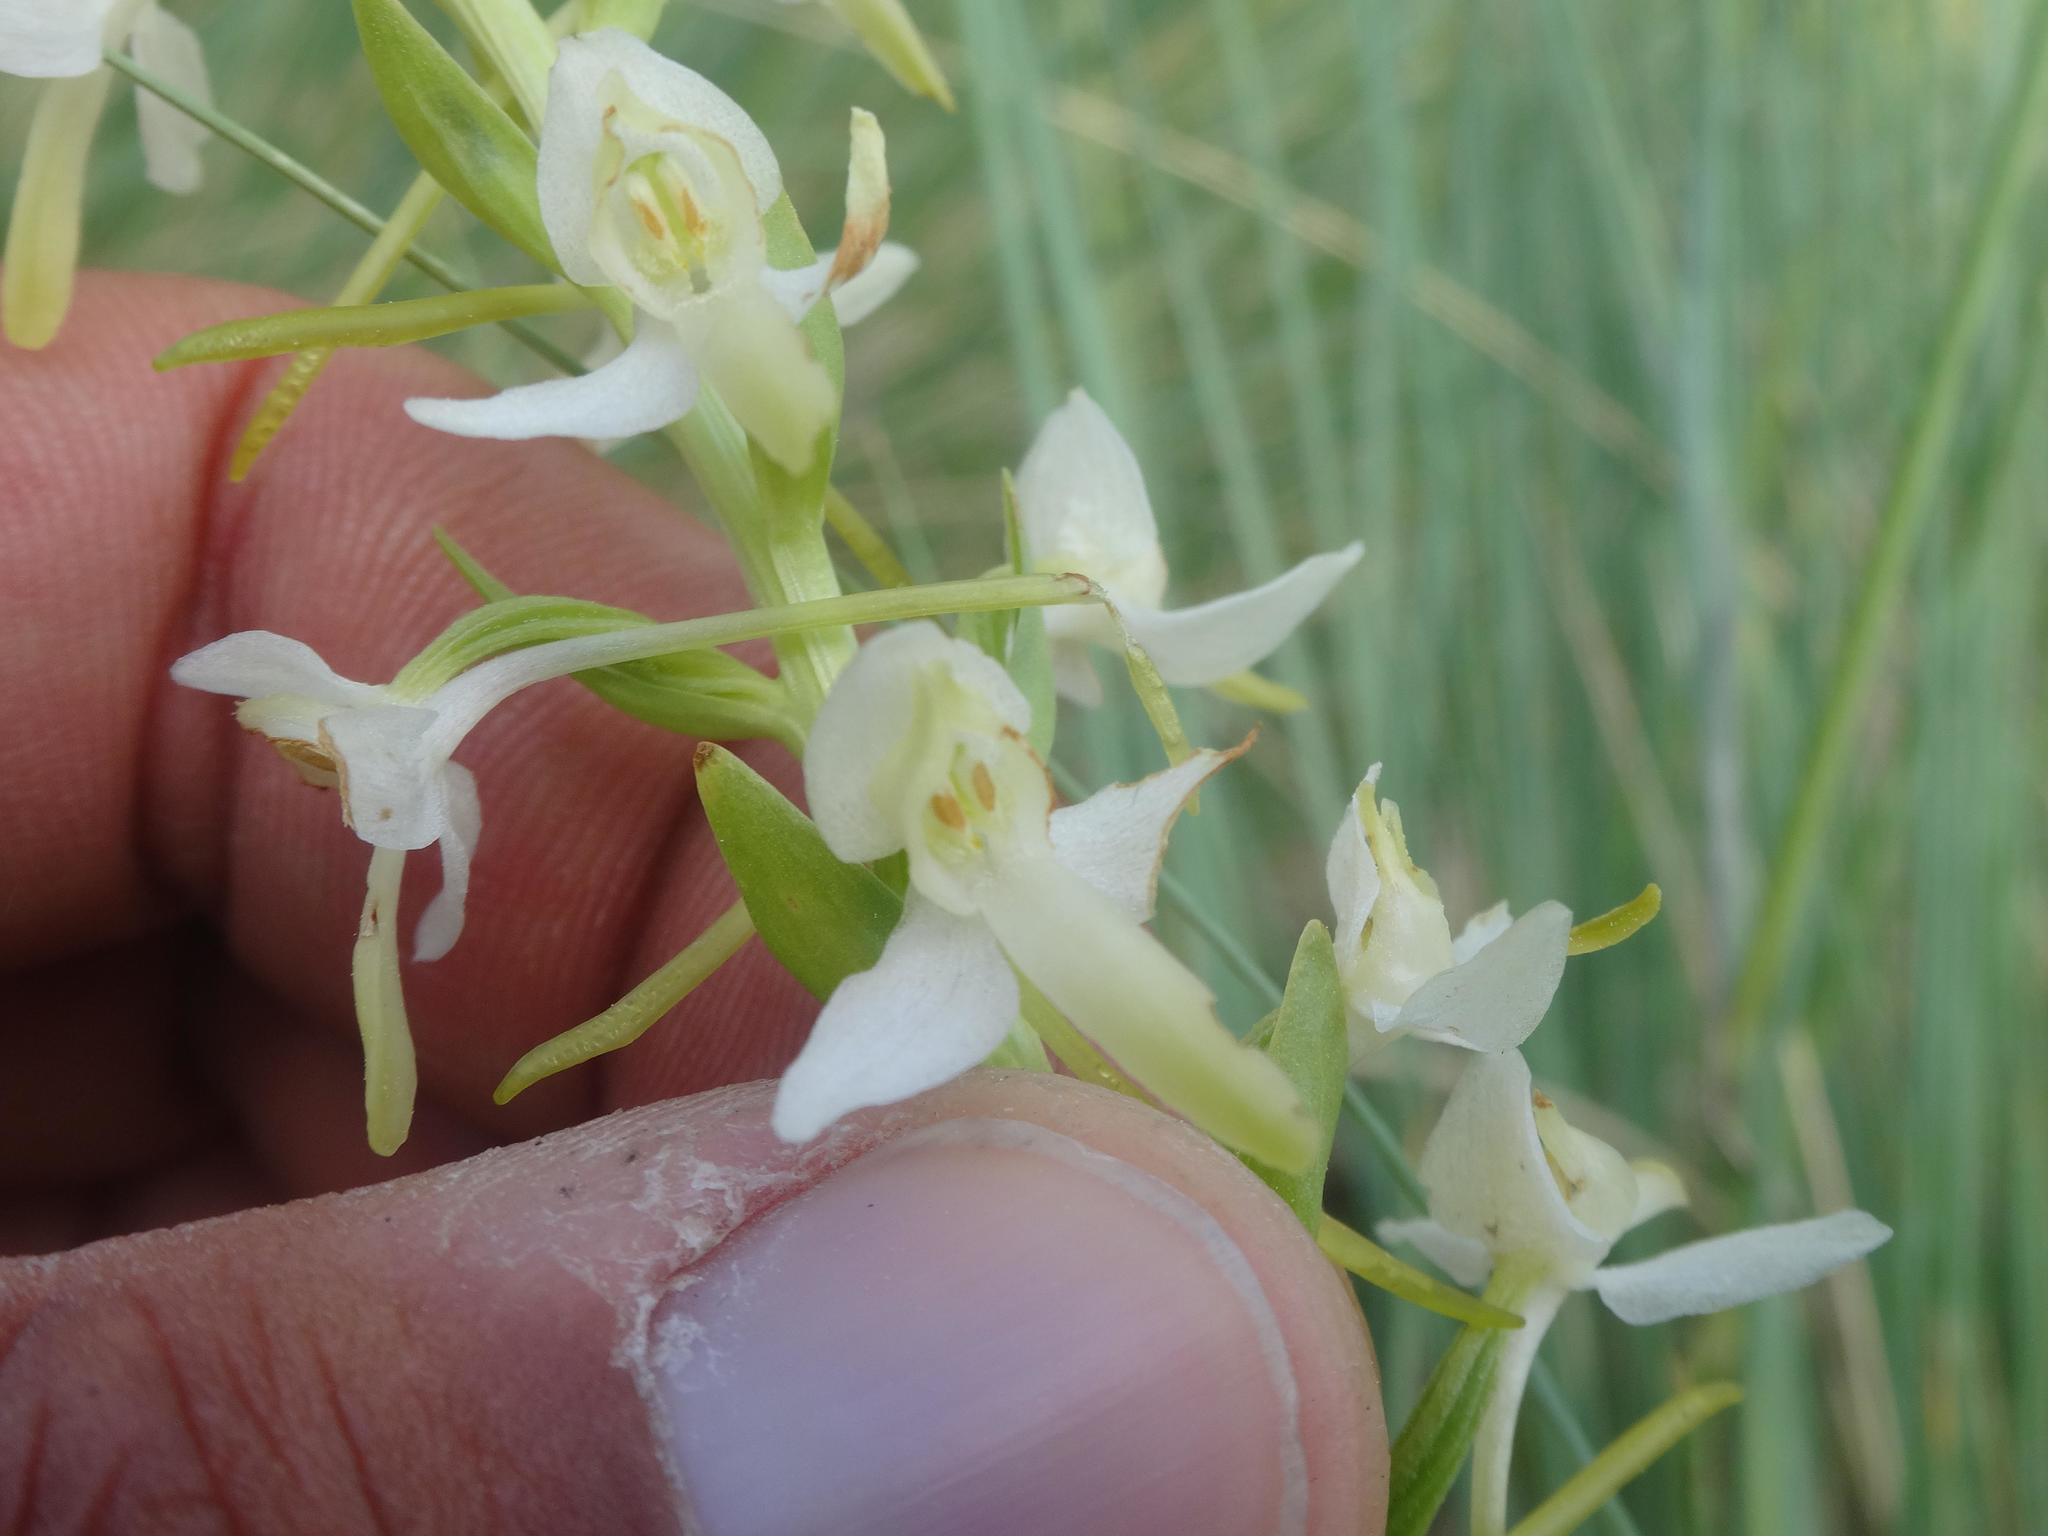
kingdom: Plantae
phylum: Tracheophyta
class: Liliopsida
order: Asparagales
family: Orchidaceae
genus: Platanthera
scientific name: Platanthera bifolia
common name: Lesser butterfly-orchid
